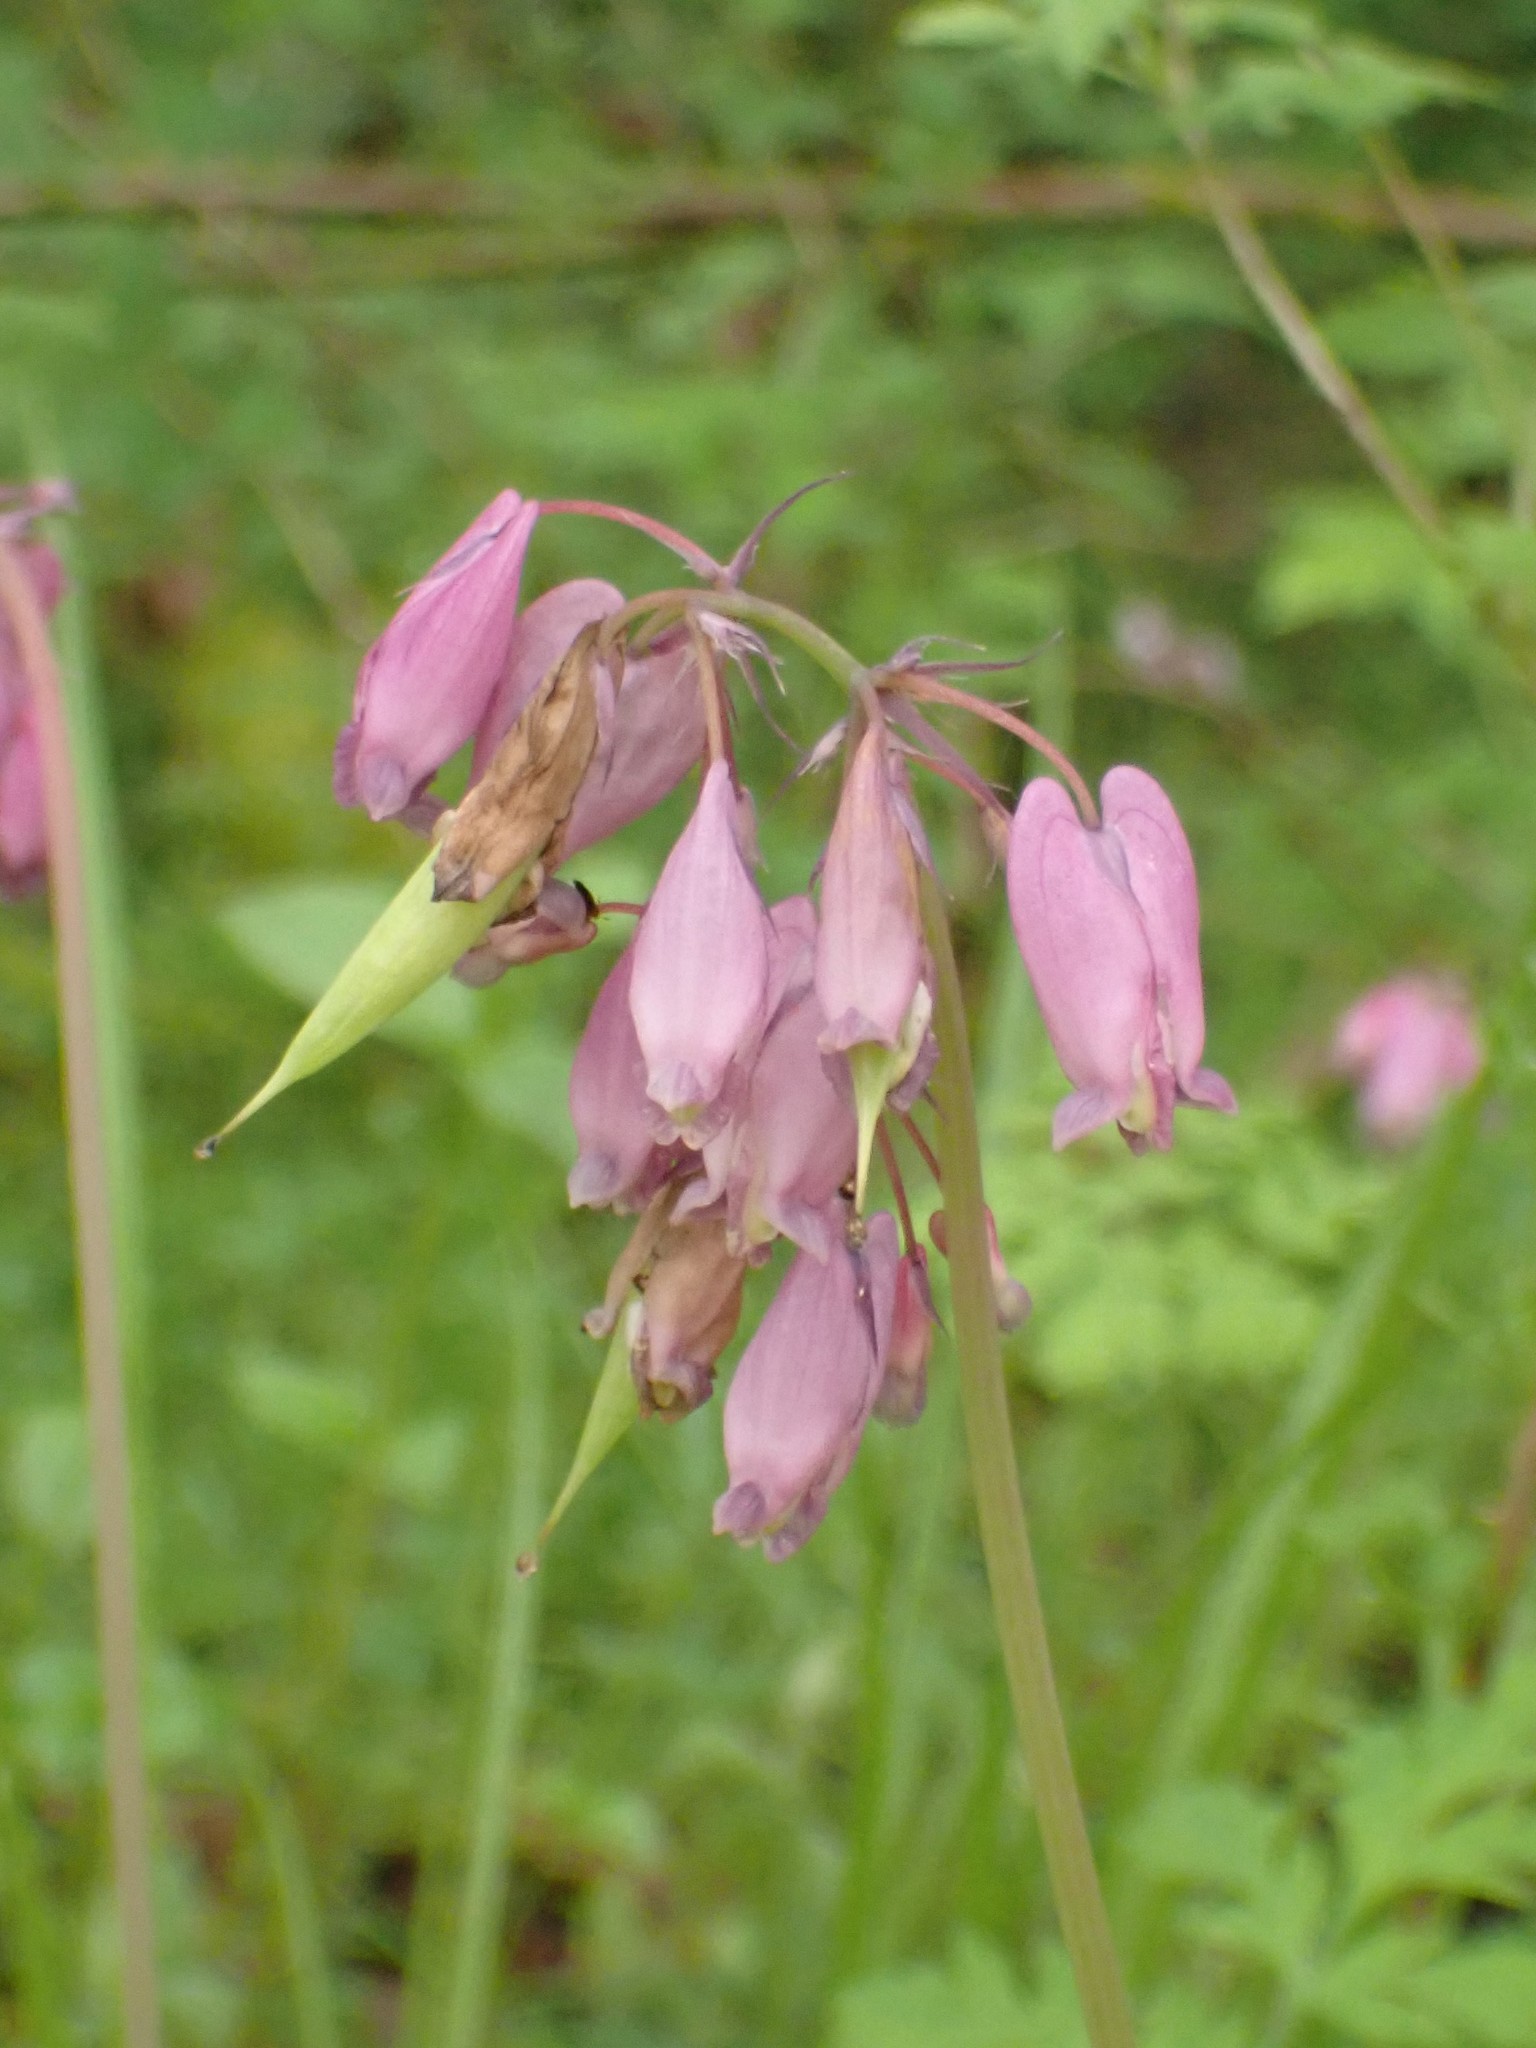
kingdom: Plantae
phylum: Tracheophyta
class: Magnoliopsida
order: Ranunculales
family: Papaveraceae
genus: Dicentra
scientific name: Dicentra formosa
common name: Bleeding-heart
